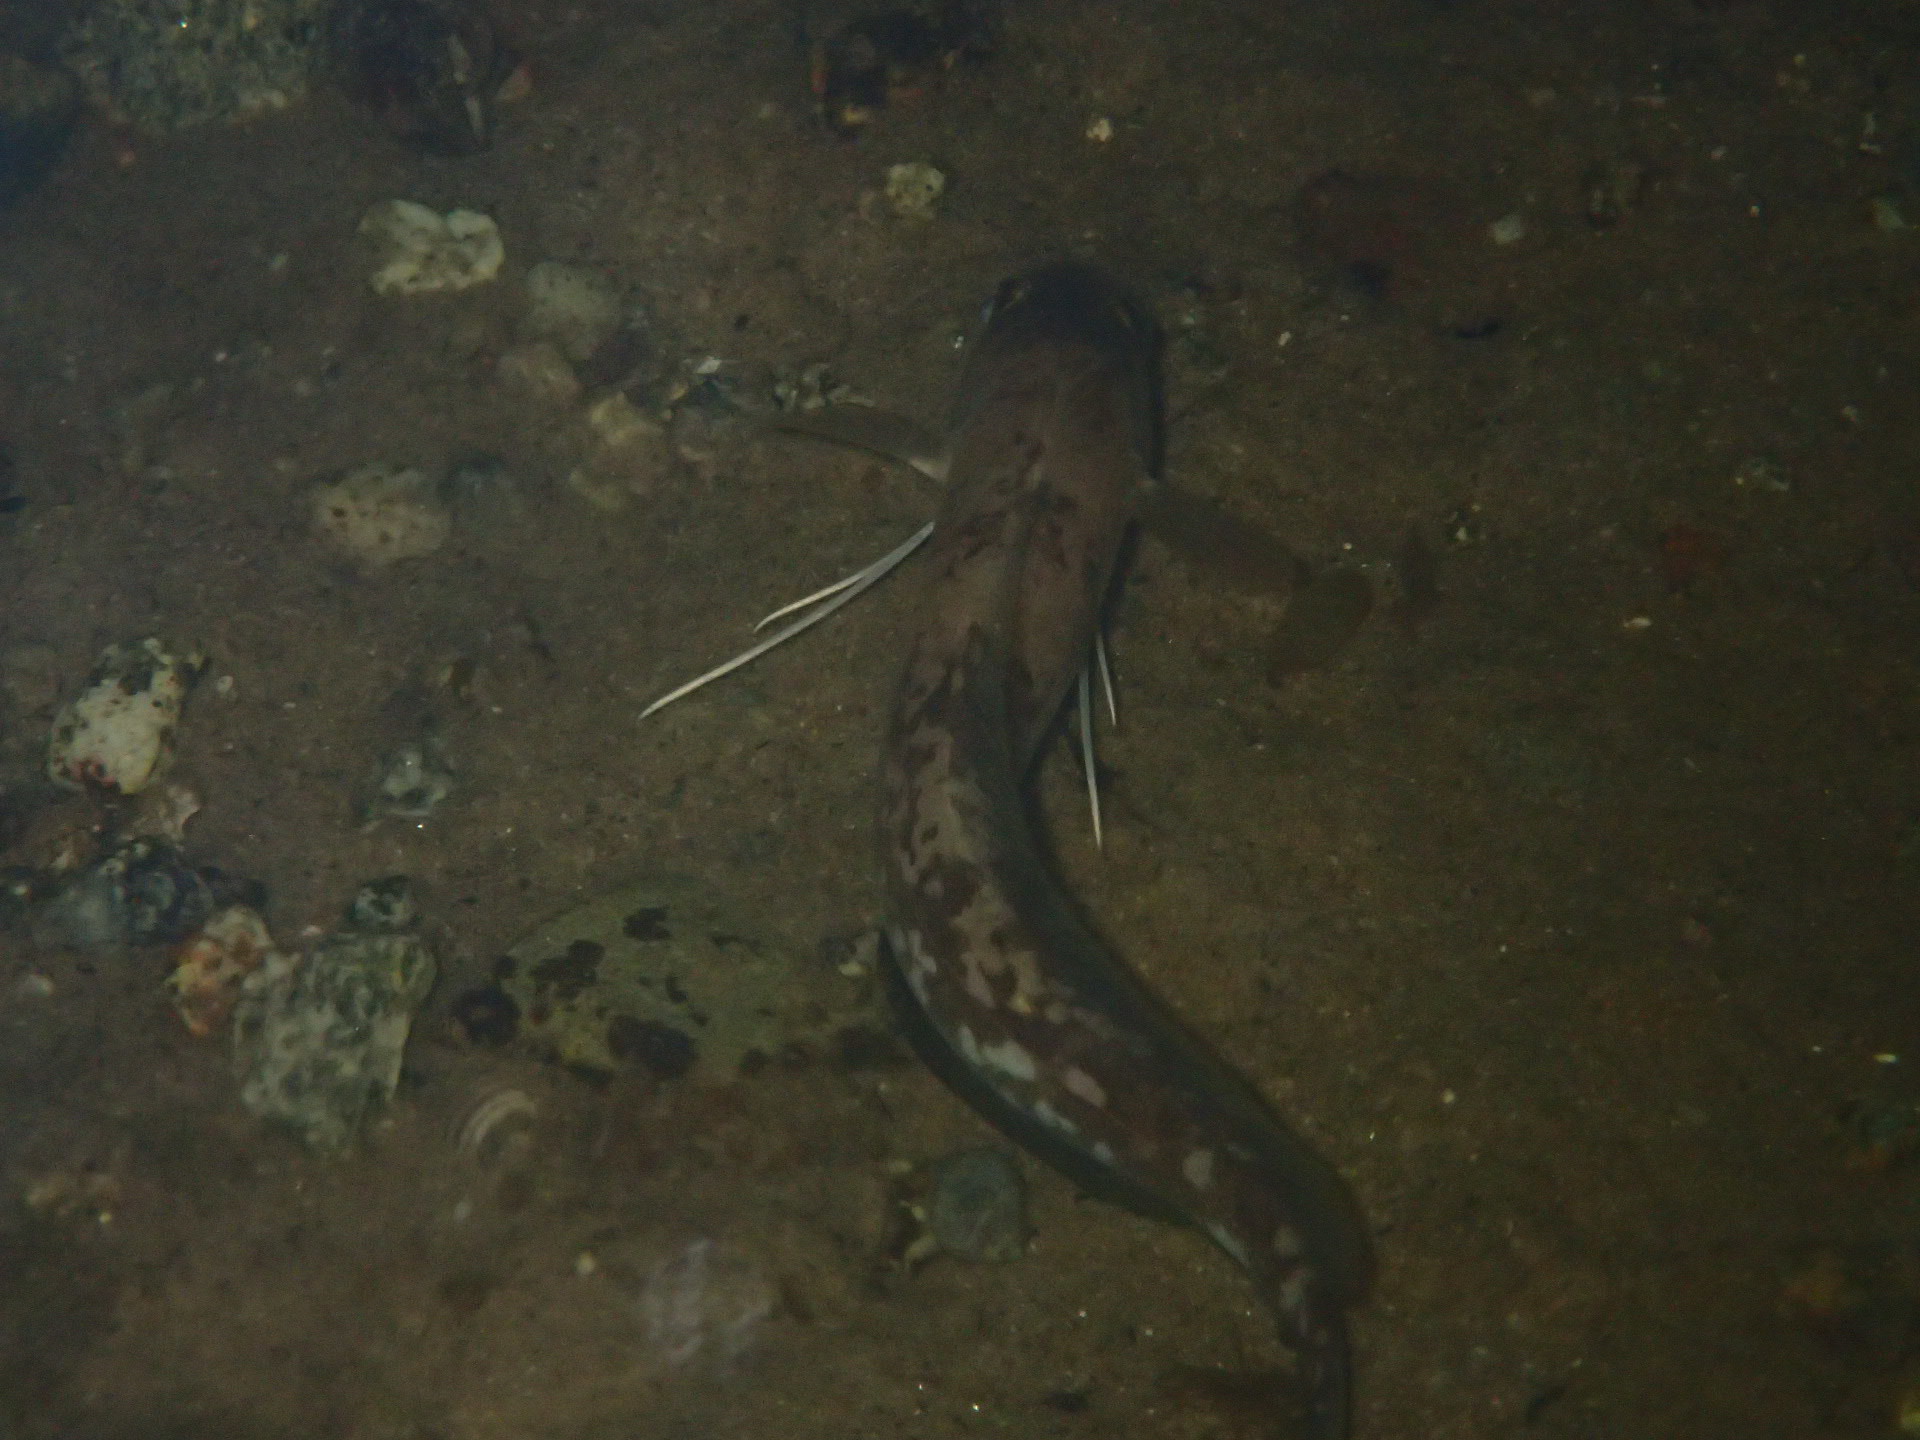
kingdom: Animalia
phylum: Chordata
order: Gadiformes
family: Phycidae
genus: Urophycis
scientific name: Urophycis chuss
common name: Red hake
